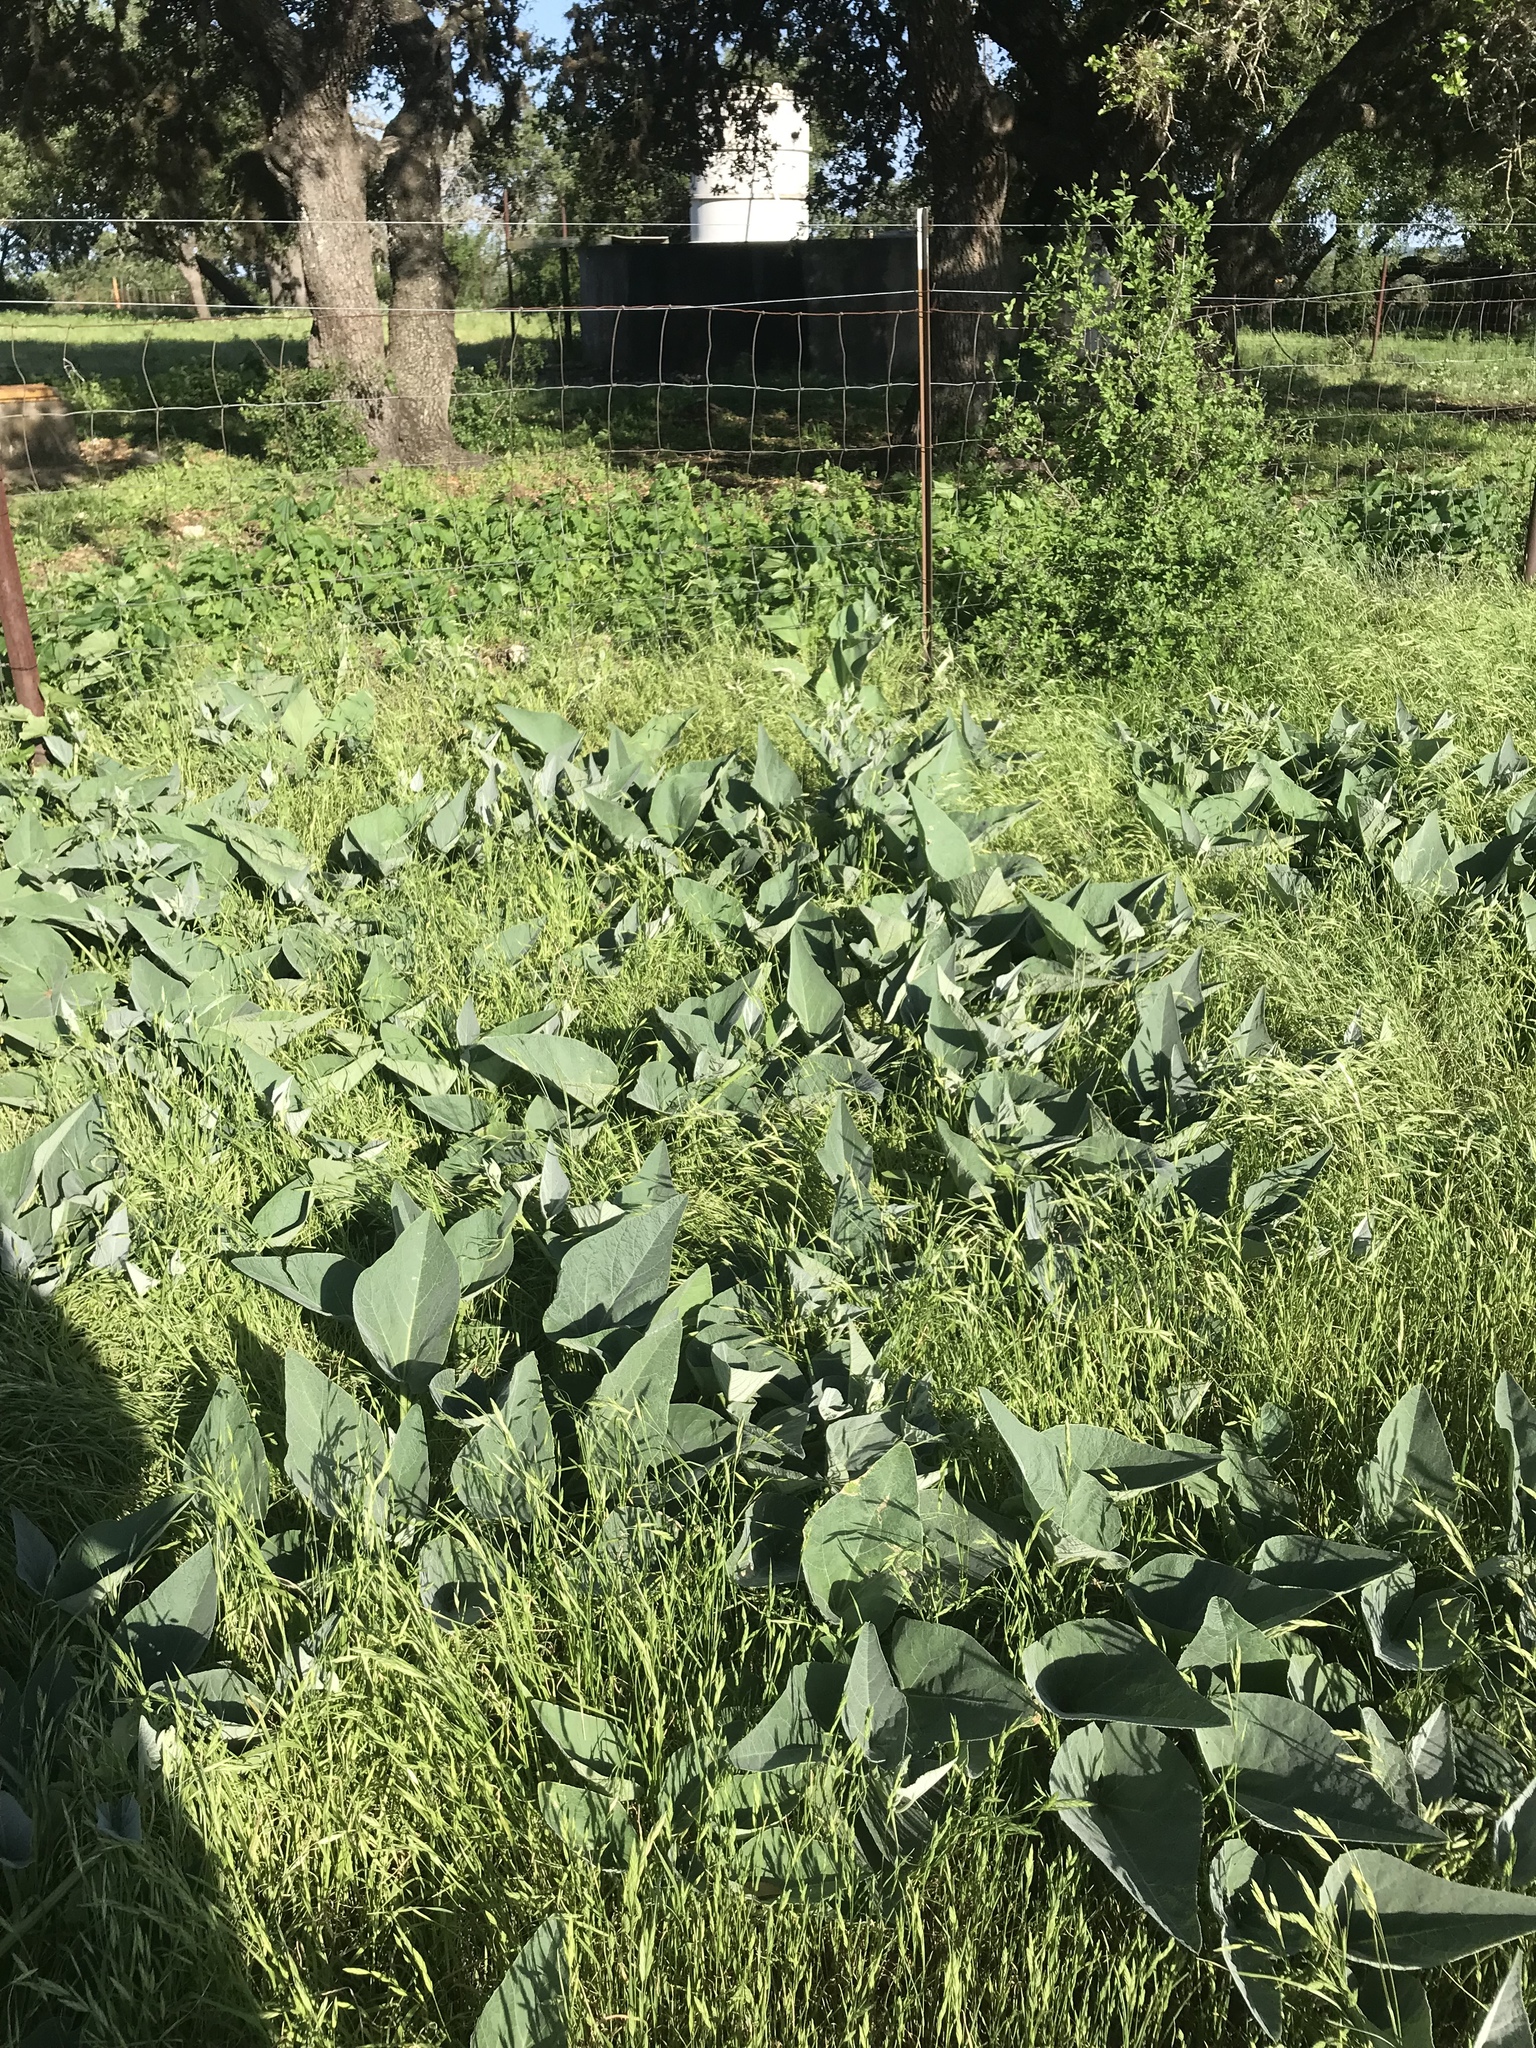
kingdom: Plantae
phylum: Tracheophyta
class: Magnoliopsida
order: Cucurbitales
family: Cucurbitaceae
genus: Cucurbita
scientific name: Cucurbita foetidissima
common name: Buffalo gourd
